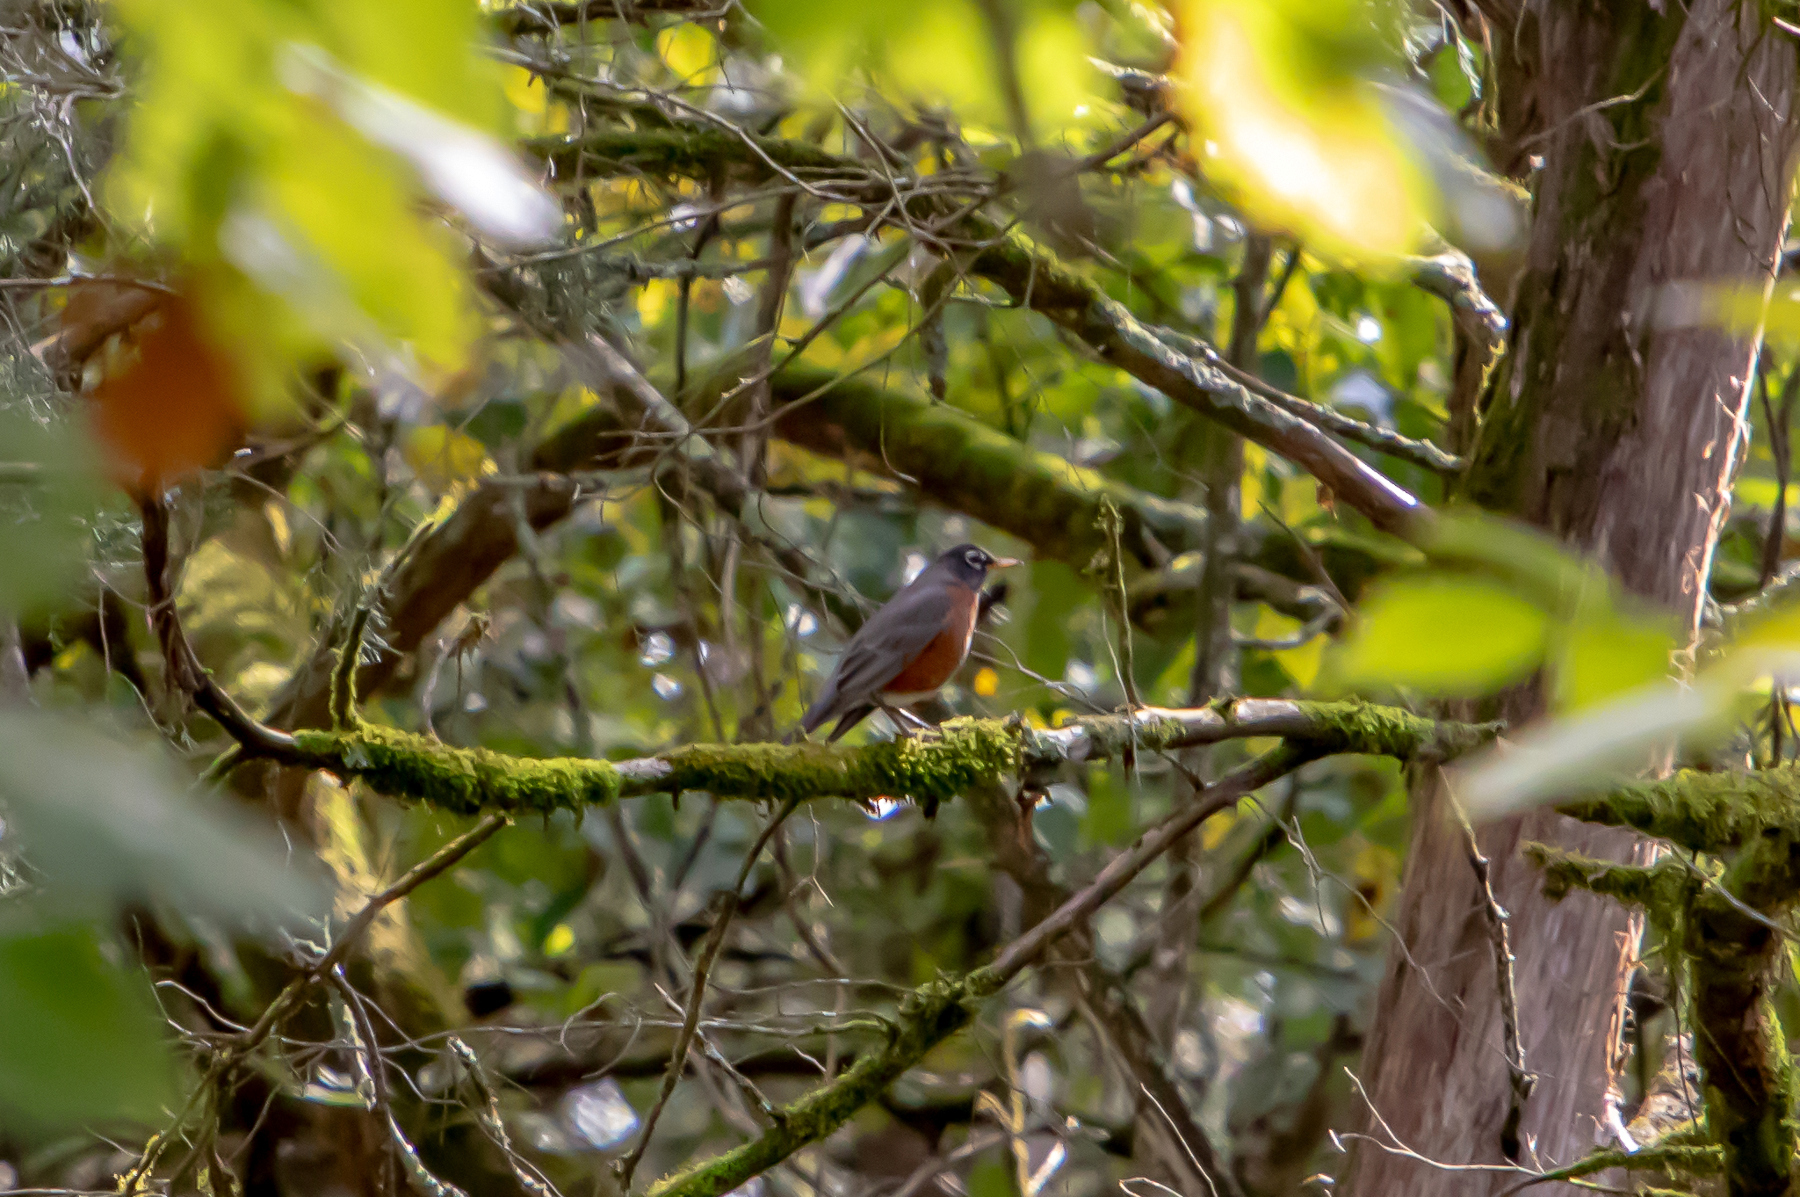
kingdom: Animalia
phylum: Chordata
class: Aves
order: Passeriformes
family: Turdidae
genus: Turdus
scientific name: Turdus migratorius
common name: American robin
